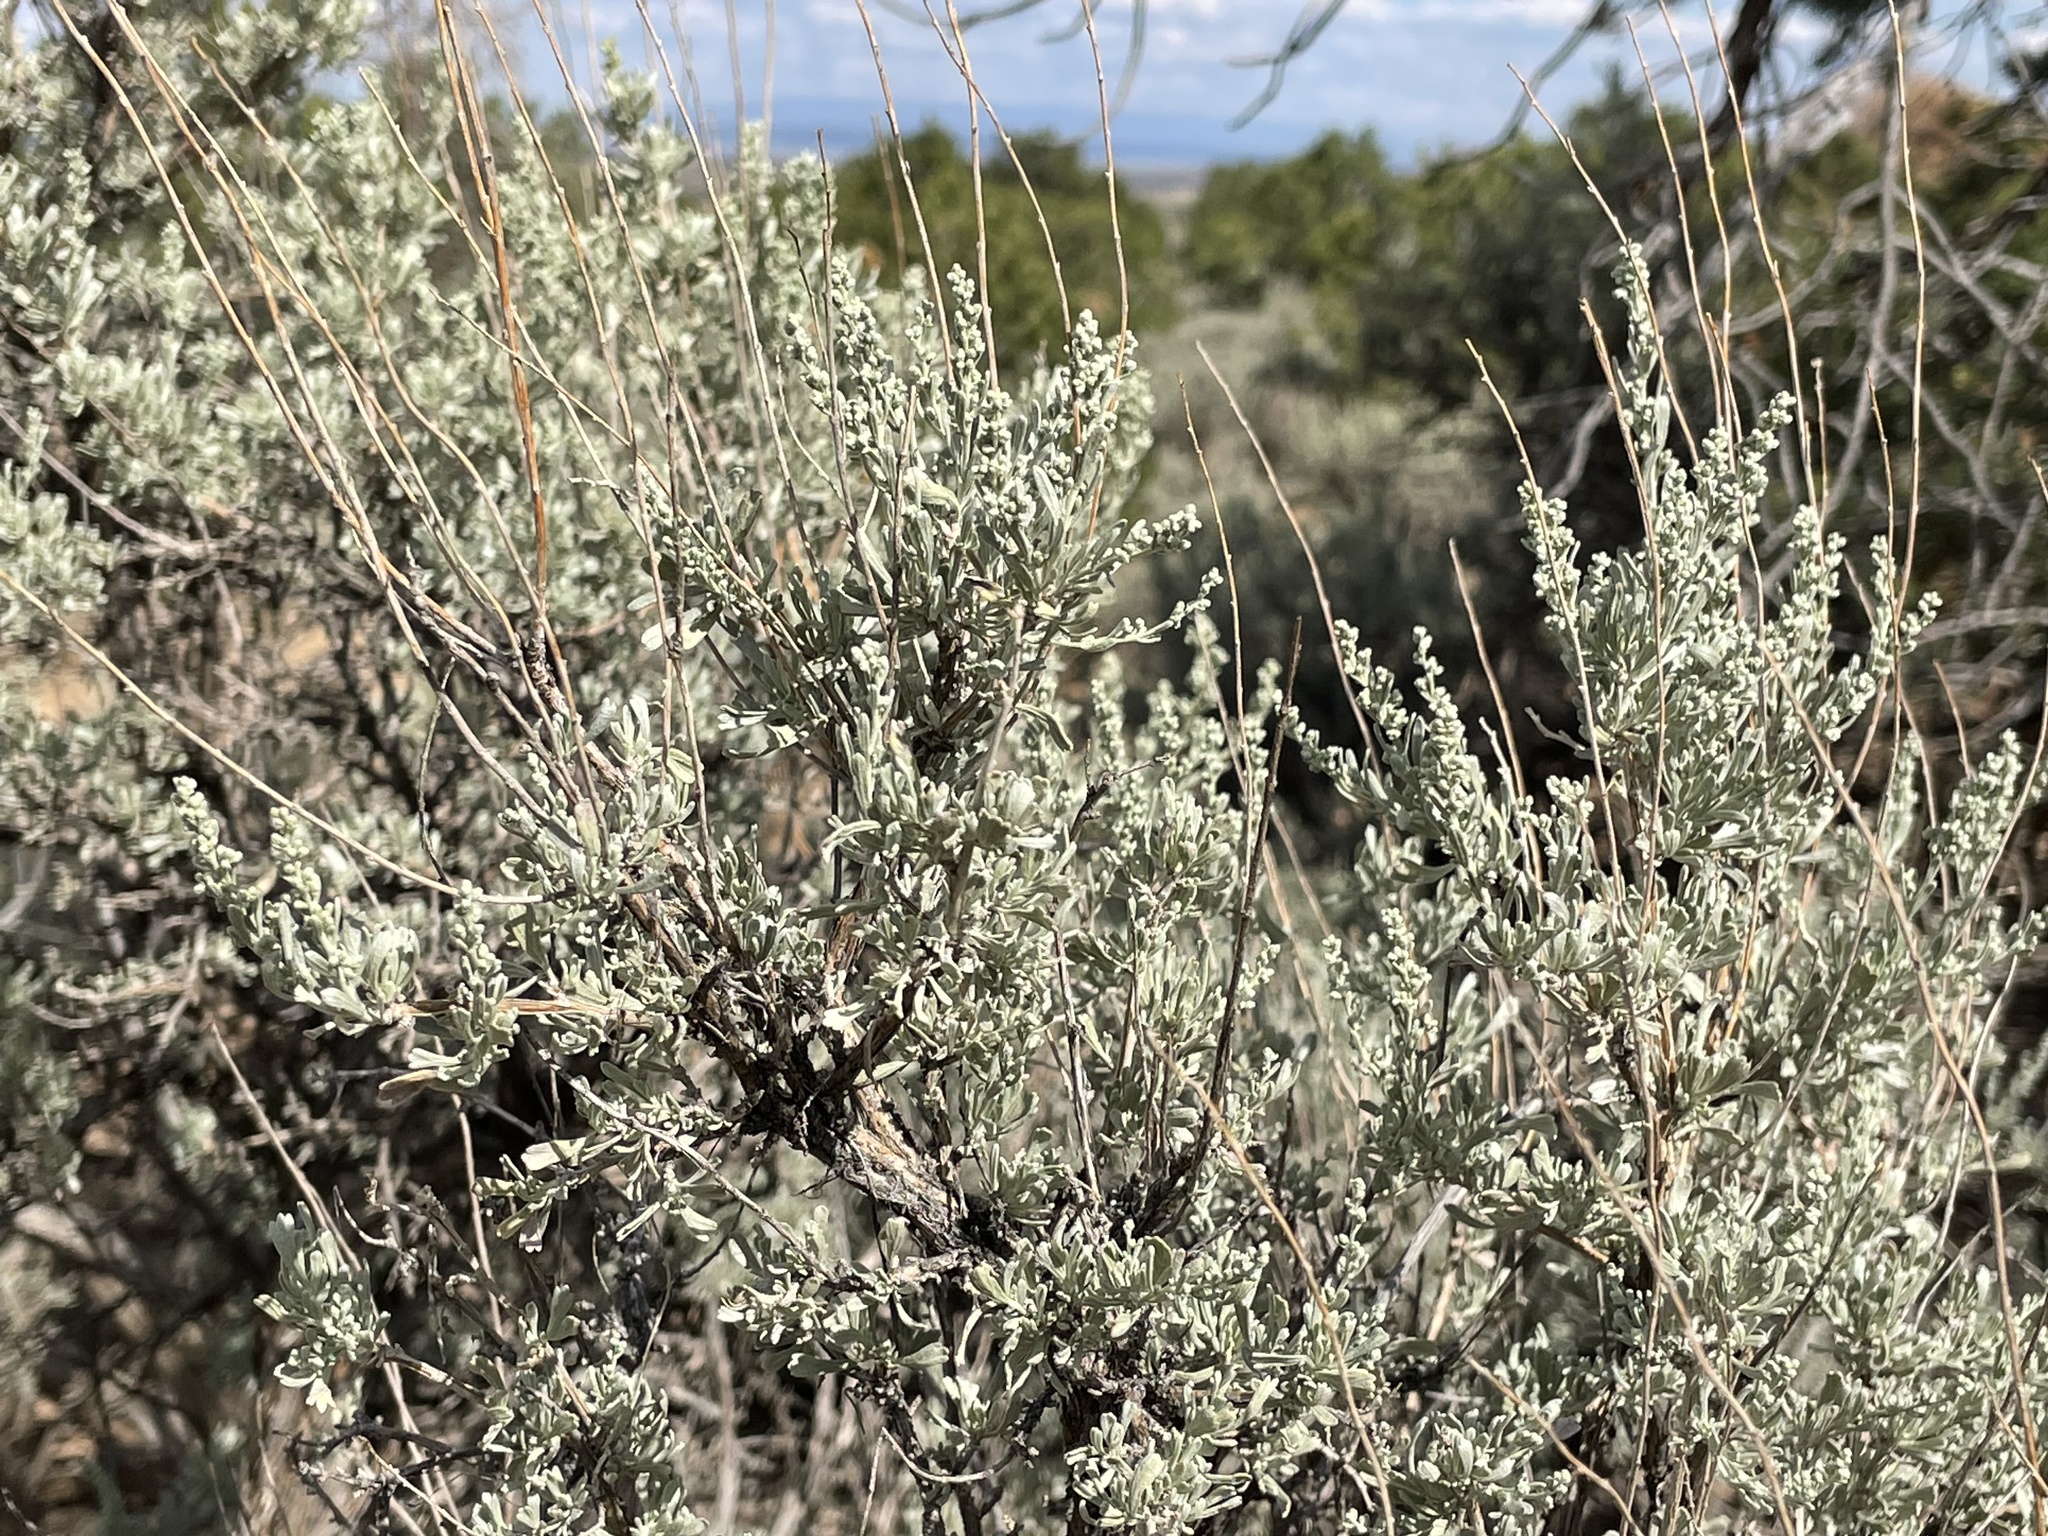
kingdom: Plantae
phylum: Tracheophyta
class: Magnoliopsida
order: Asterales
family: Asteraceae
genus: Artemisia
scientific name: Artemisia tridentata
